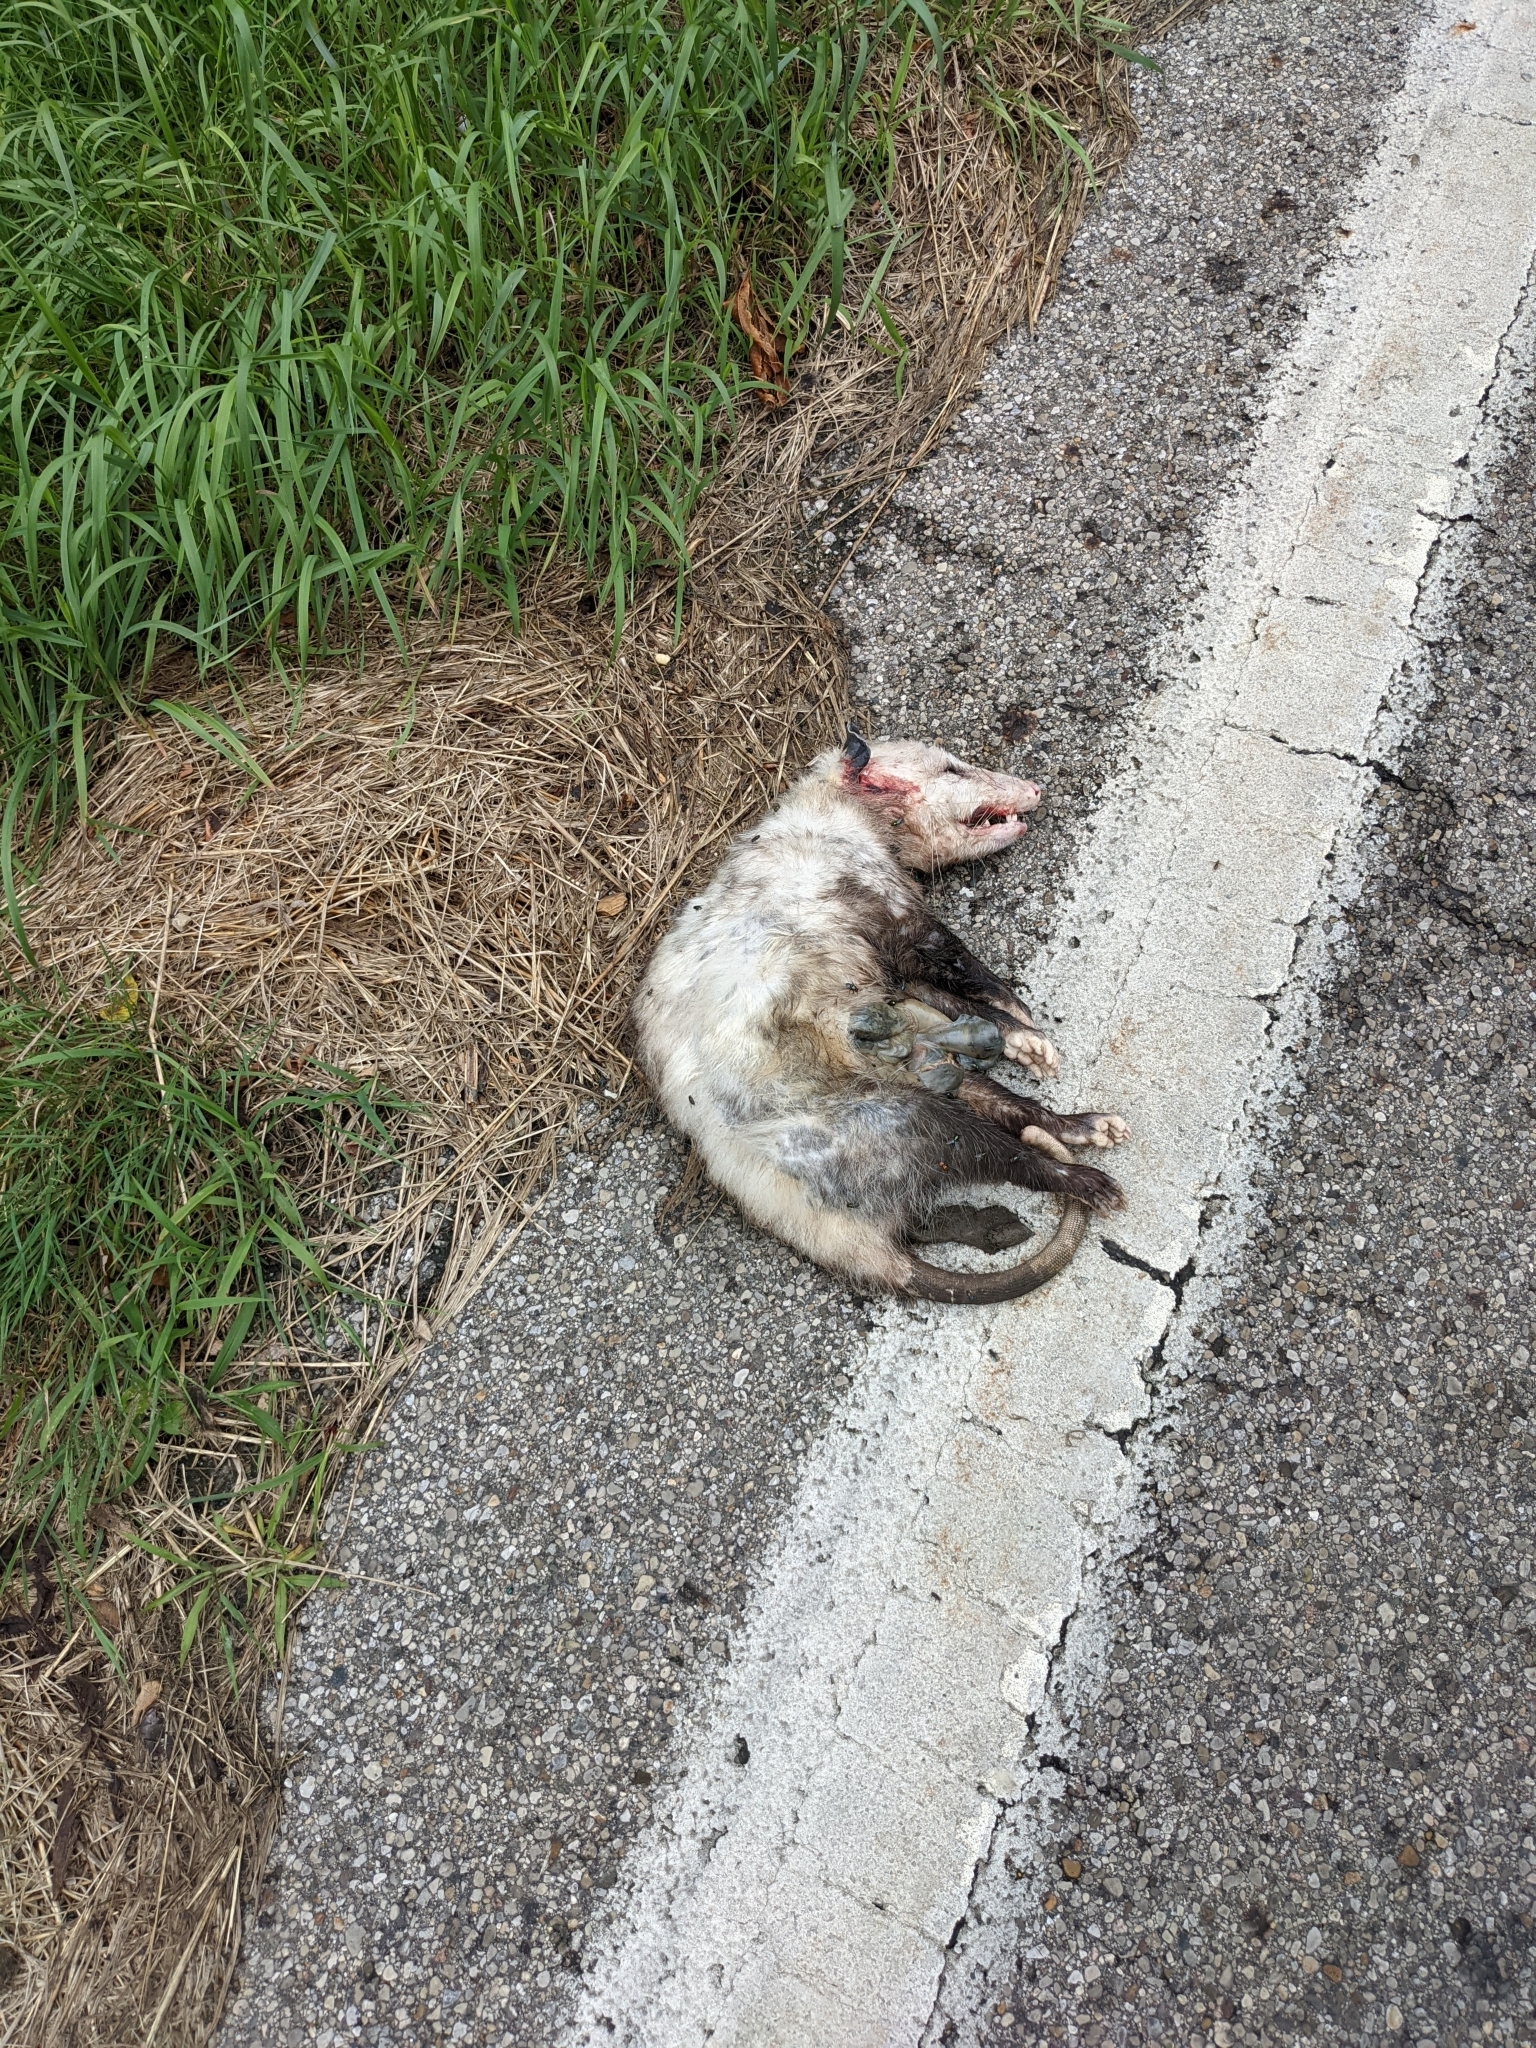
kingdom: Animalia
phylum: Chordata
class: Mammalia
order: Didelphimorphia
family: Didelphidae
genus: Didelphis
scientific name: Didelphis virginiana
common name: Virginia opossum
